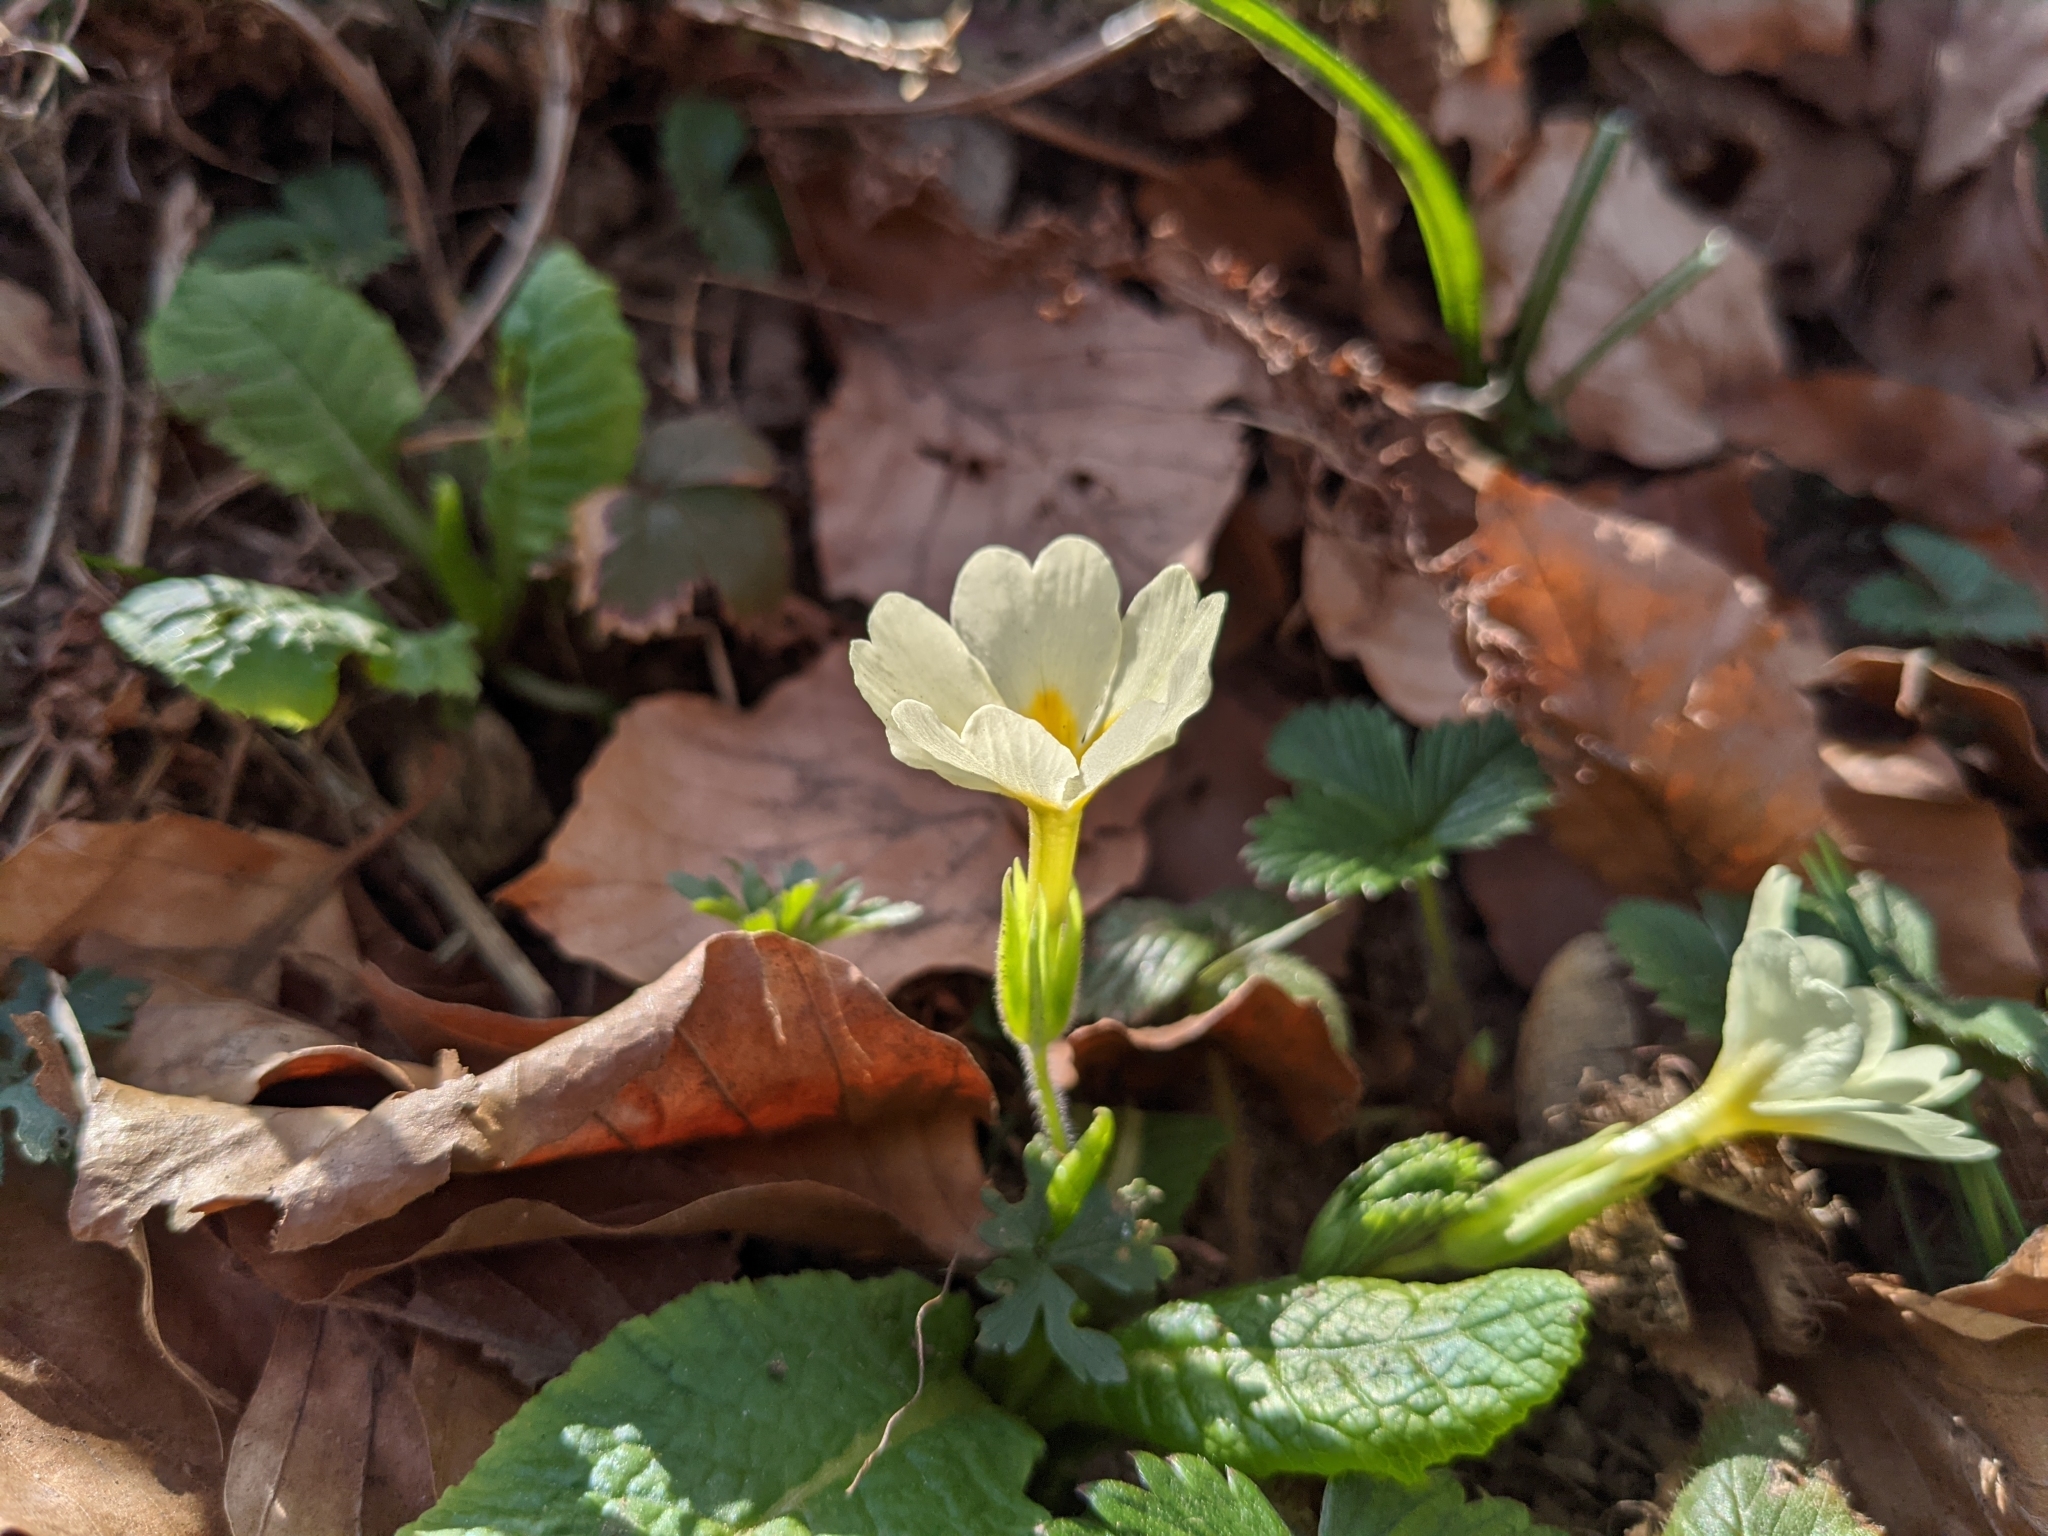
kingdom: Plantae
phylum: Tracheophyta
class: Magnoliopsida
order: Ericales
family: Primulaceae
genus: Primula
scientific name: Primula vulgaris
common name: Primrose
